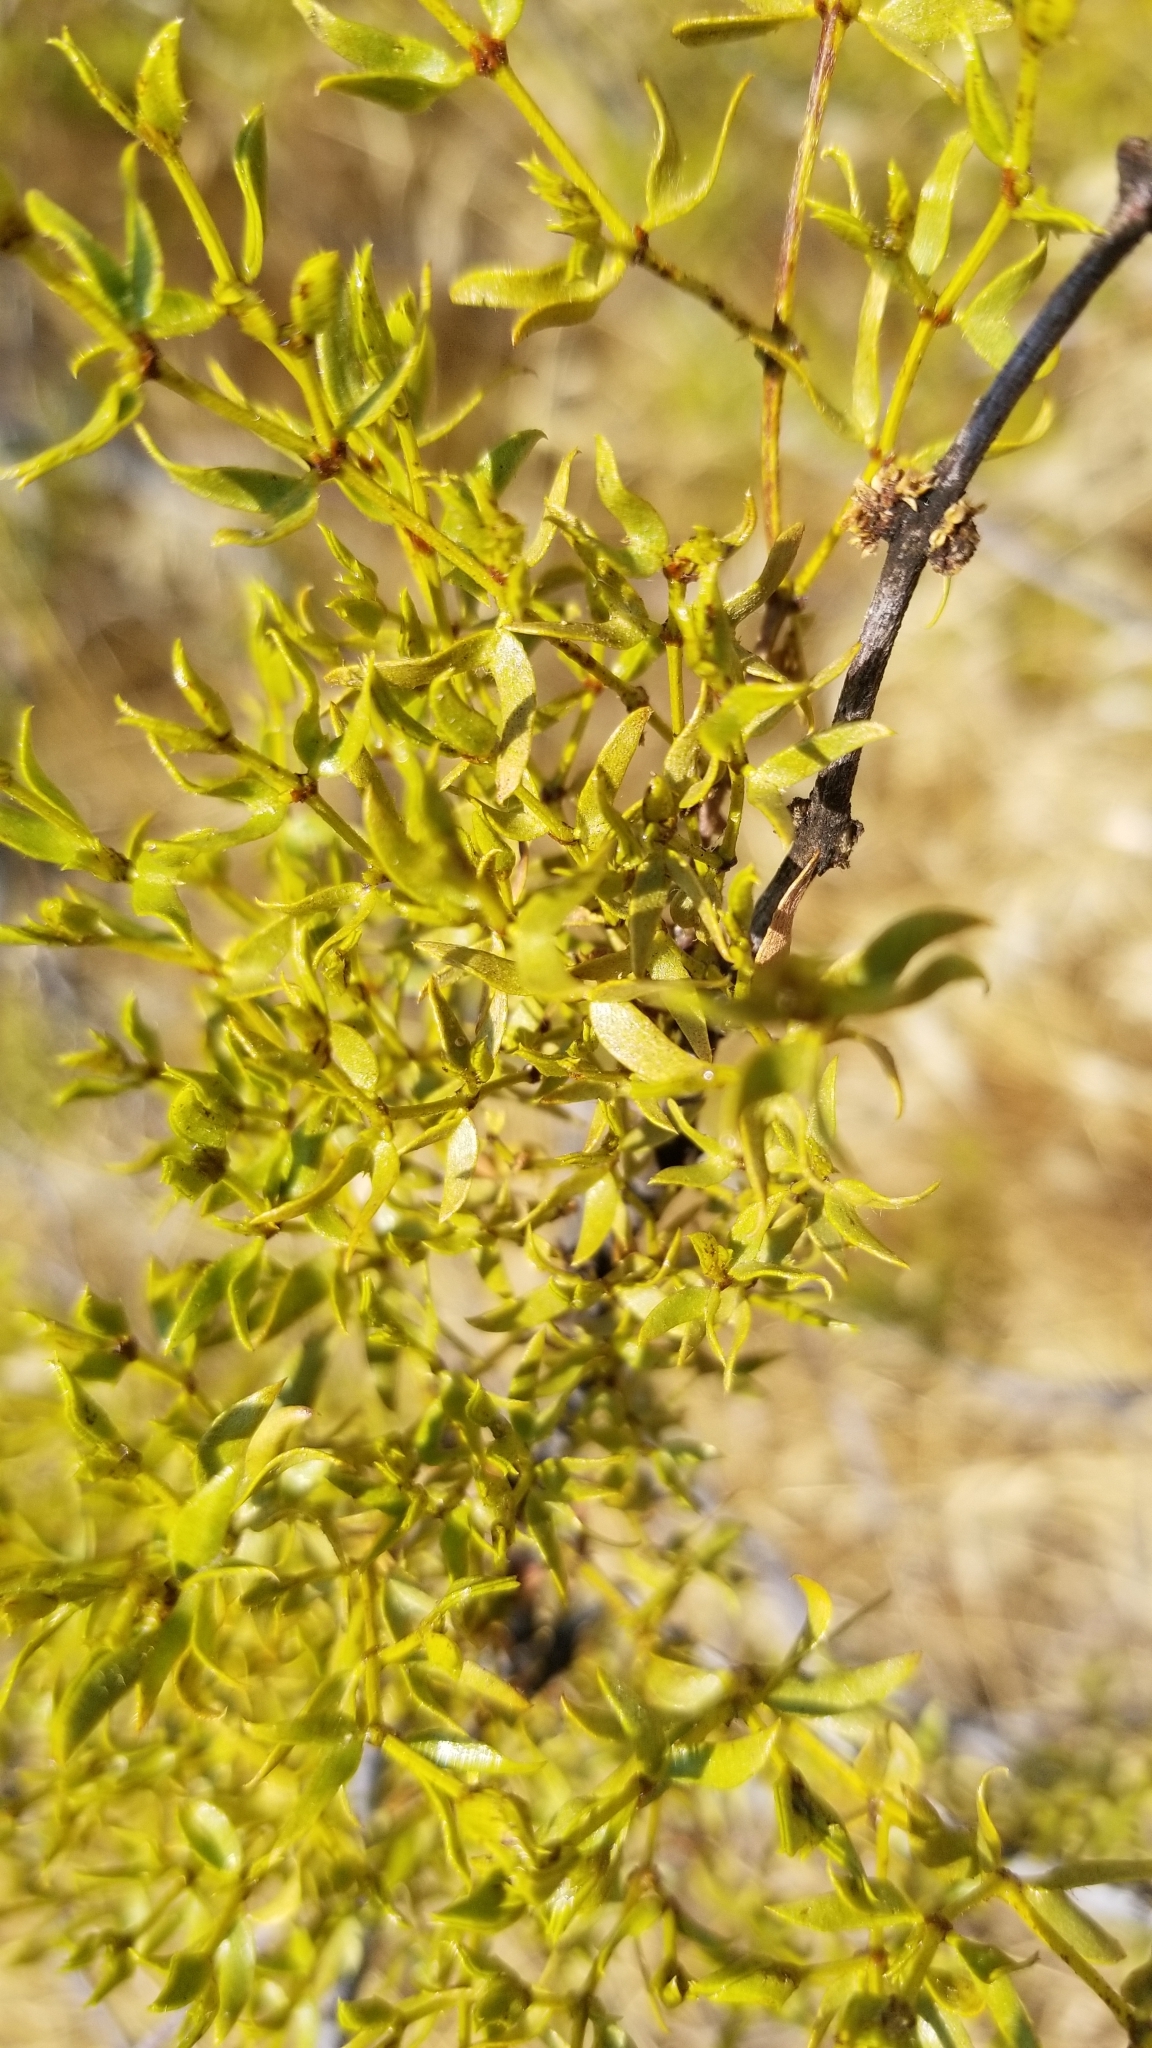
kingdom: Plantae
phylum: Tracheophyta
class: Magnoliopsida
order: Zygophyllales
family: Zygophyllaceae
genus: Larrea
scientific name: Larrea tridentata
